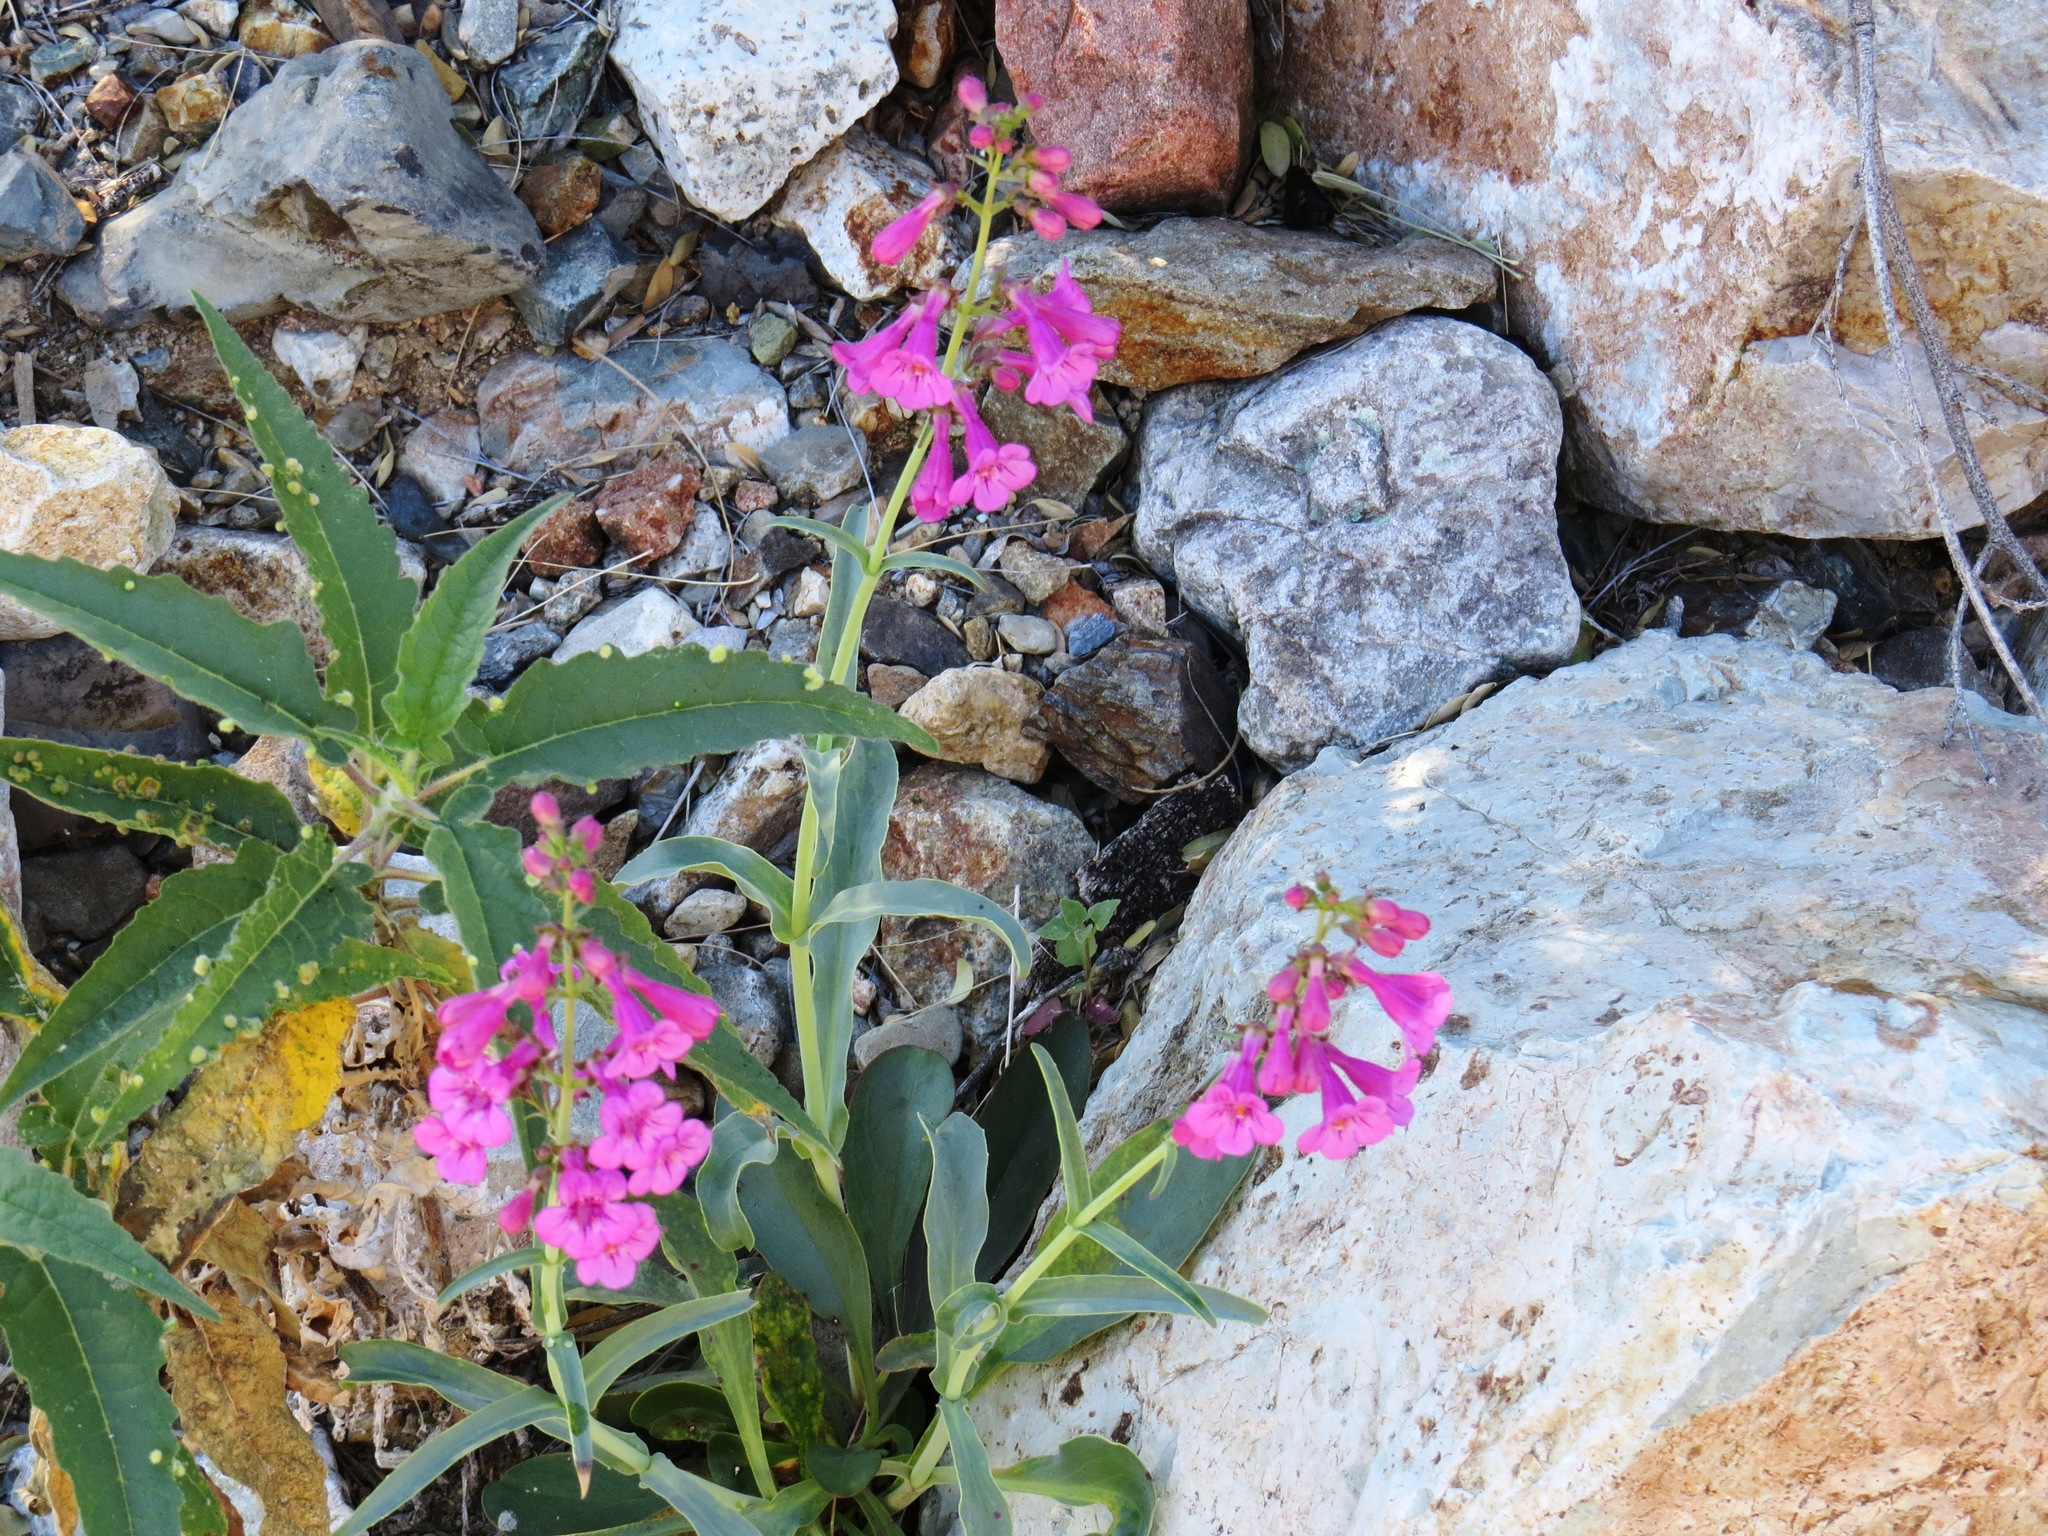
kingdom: Plantae
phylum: Tracheophyta
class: Magnoliopsida
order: Lamiales
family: Plantaginaceae
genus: Penstemon
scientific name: Penstemon parryi
